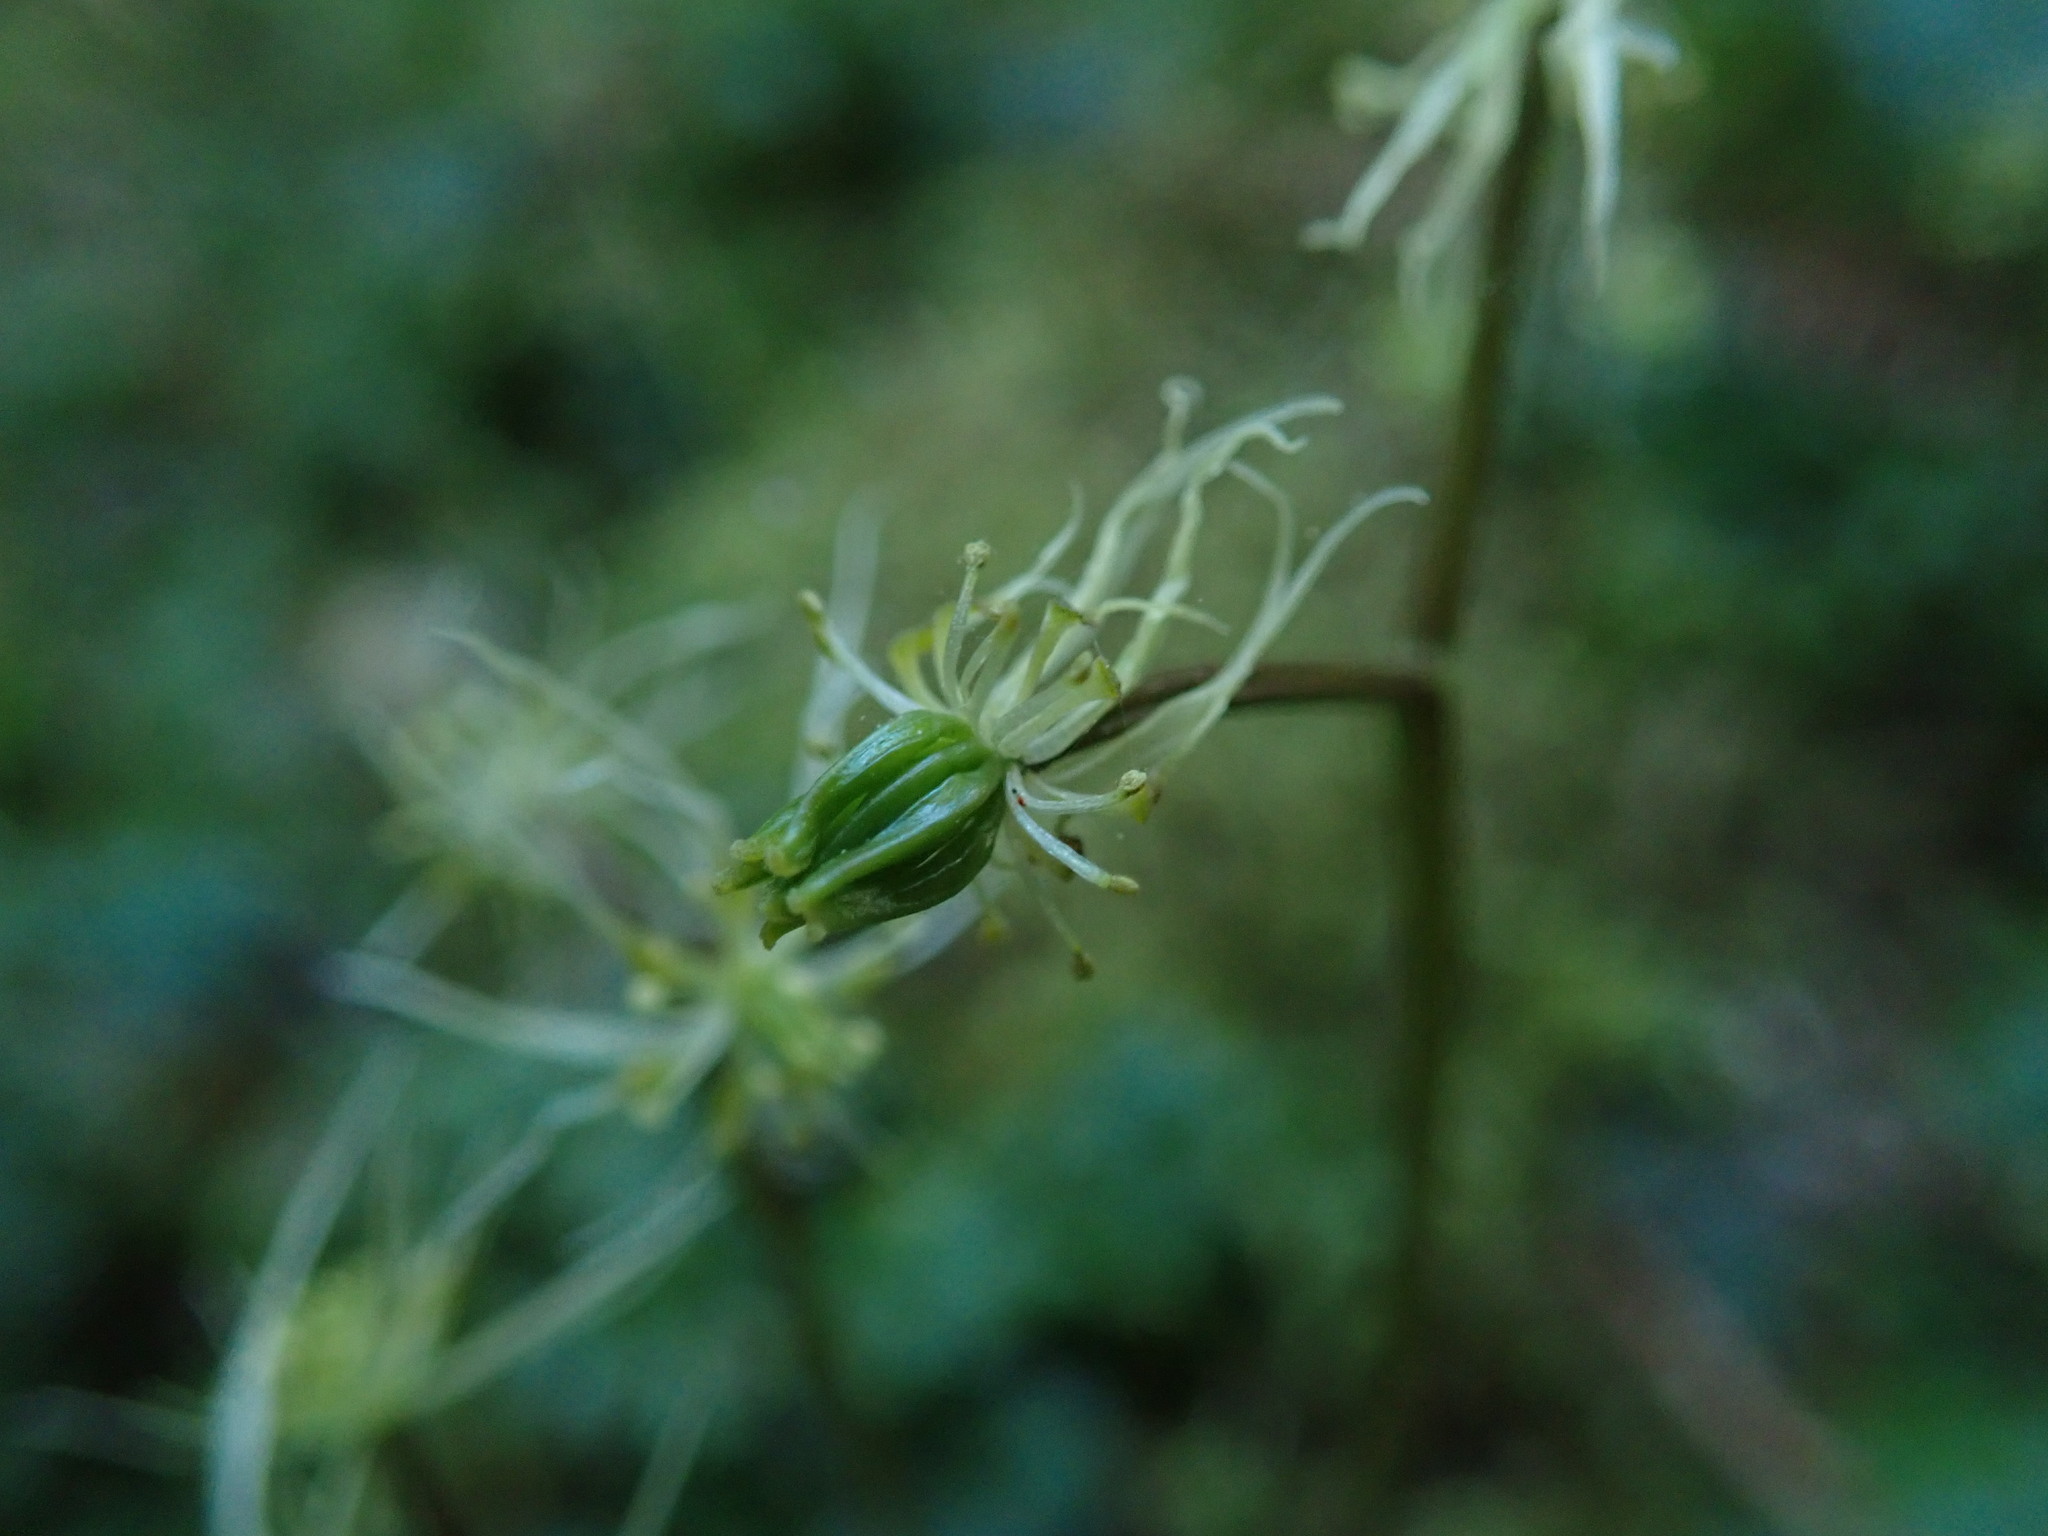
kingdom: Plantae
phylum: Tracheophyta
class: Magnoliopsida
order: Ranunculales
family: Ranunculaceae
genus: Coptis
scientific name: Coptis aspleniifolia
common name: Fern-leaved goldthread
